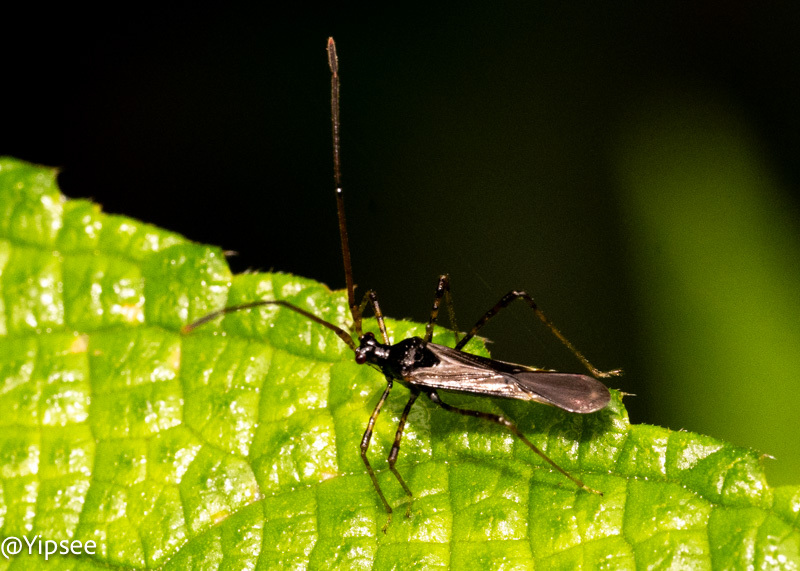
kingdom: Animalia
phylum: Arthropoda
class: Insecta
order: Hemiptera
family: Miridae
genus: Helopeltis
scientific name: Helopeltis cinchonae
